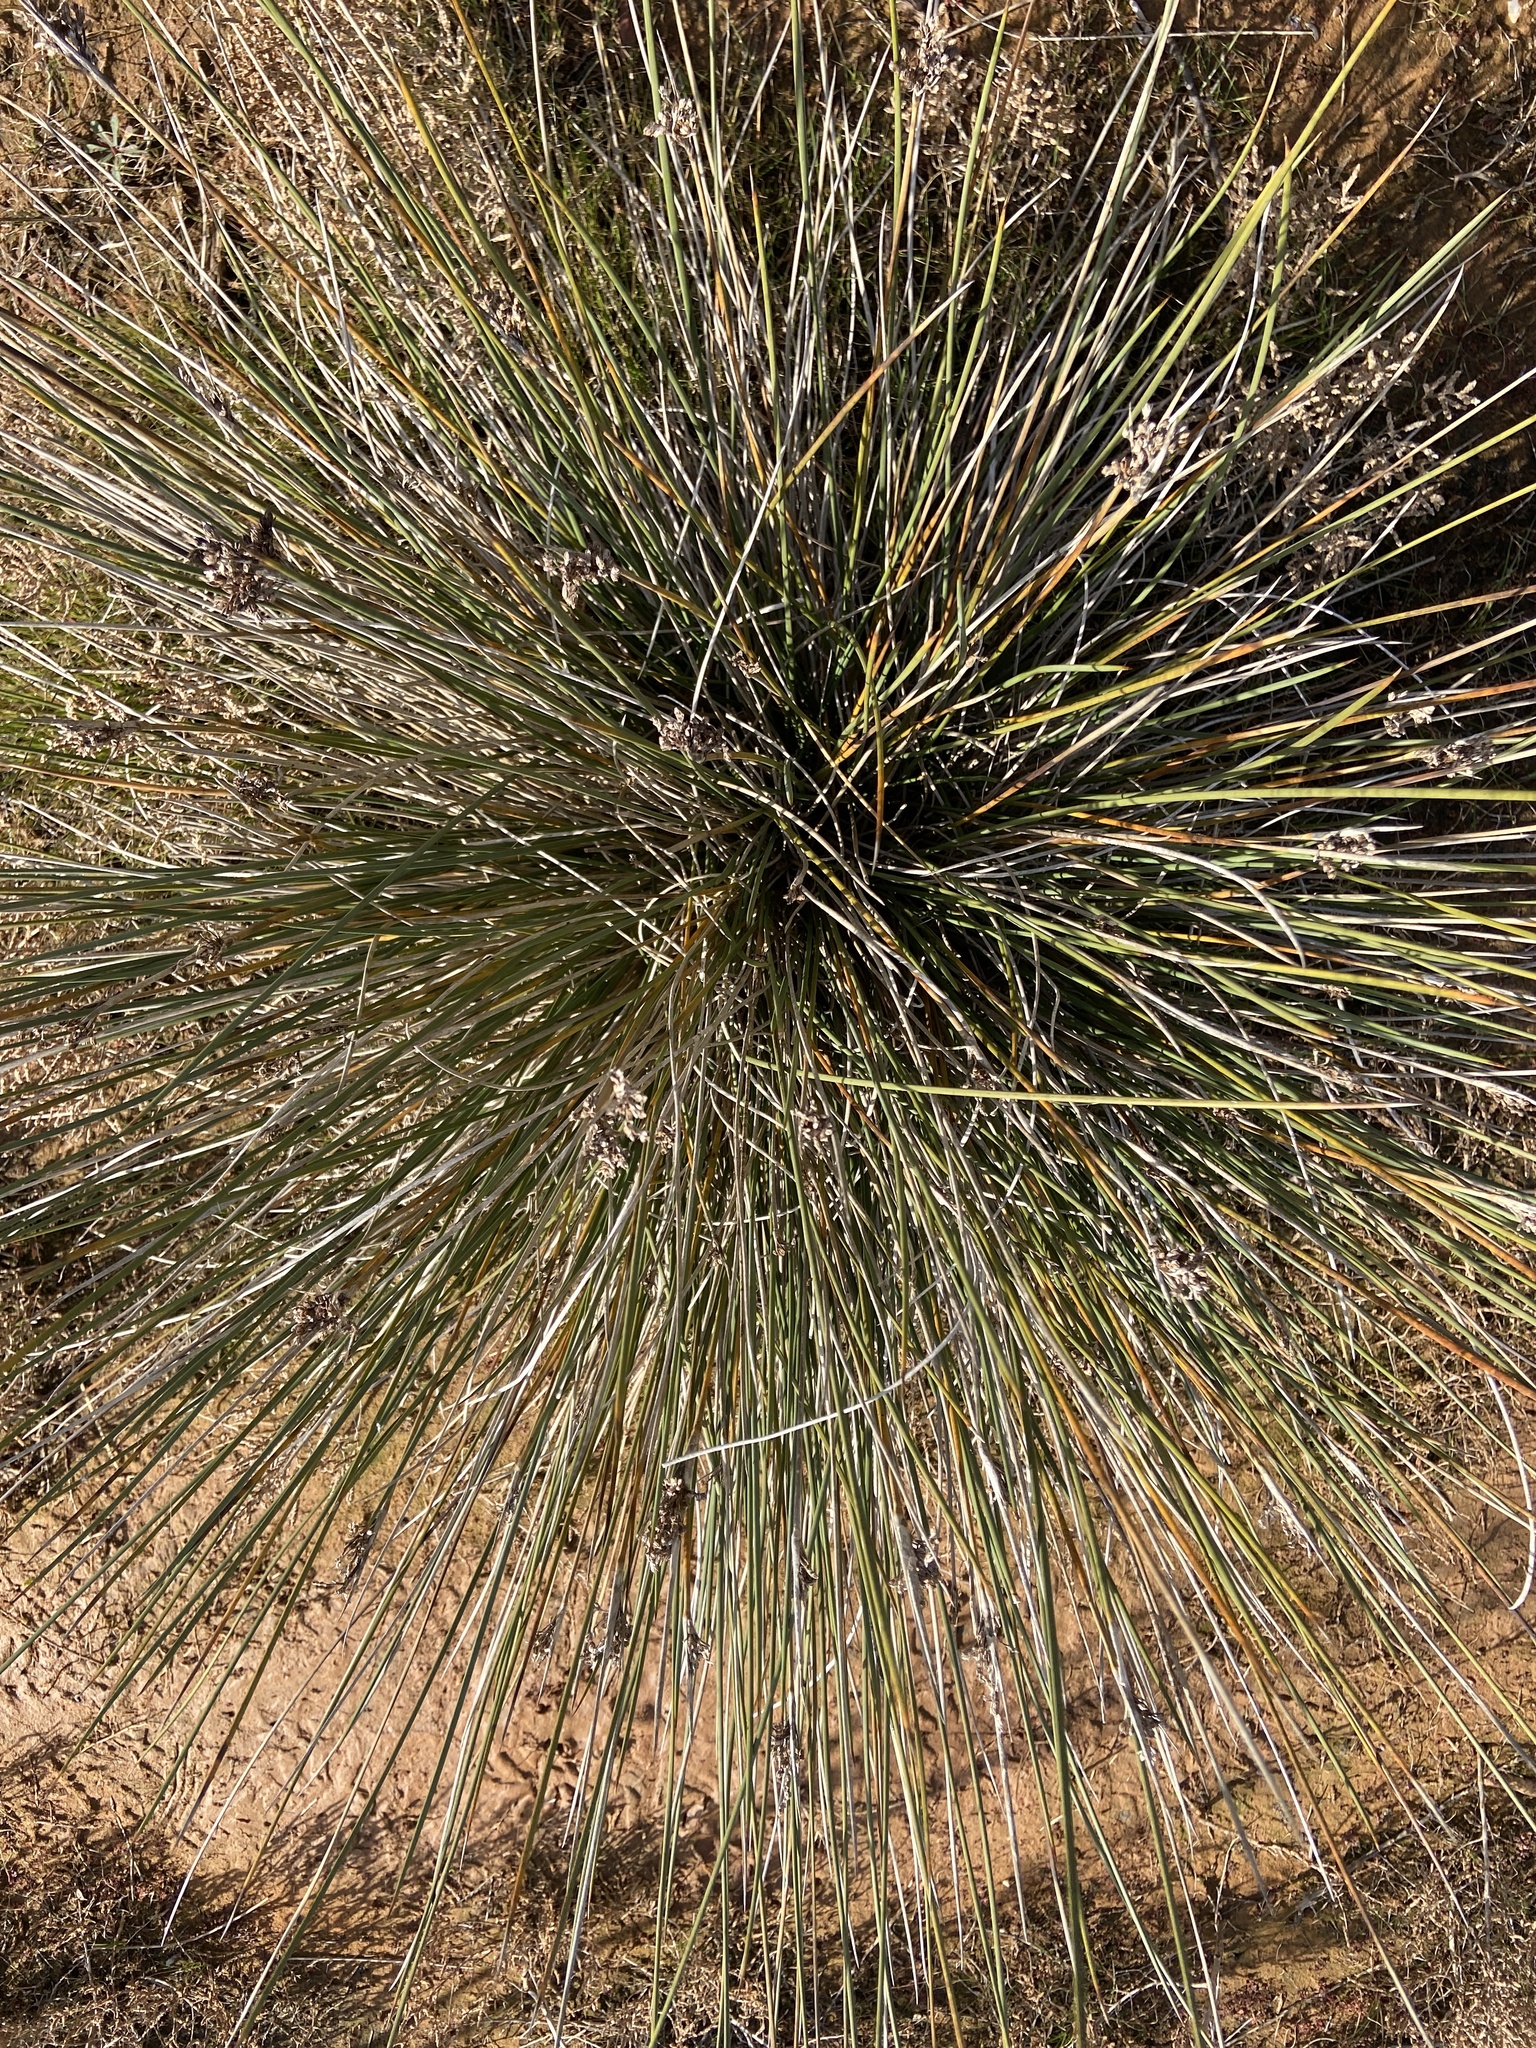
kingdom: Plantae
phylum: Tracheophyta
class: Liliopsida
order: Poales
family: Juncaceae
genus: Juncus
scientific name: Juncus acutus
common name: Sharp rush
